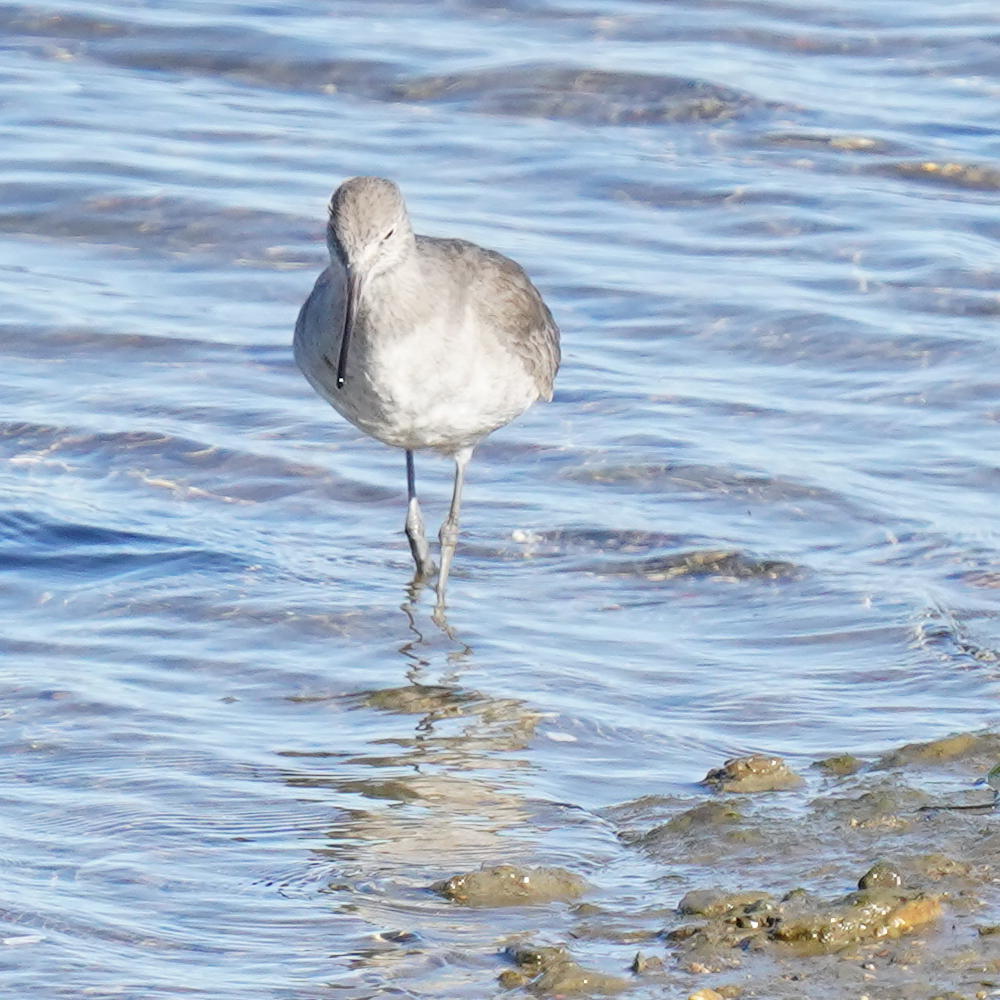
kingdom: Animalia
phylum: Chordata
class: Aves
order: Charadriiformes
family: Scolopacidae
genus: Tringa
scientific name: Tringa semipalmata
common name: Willet
